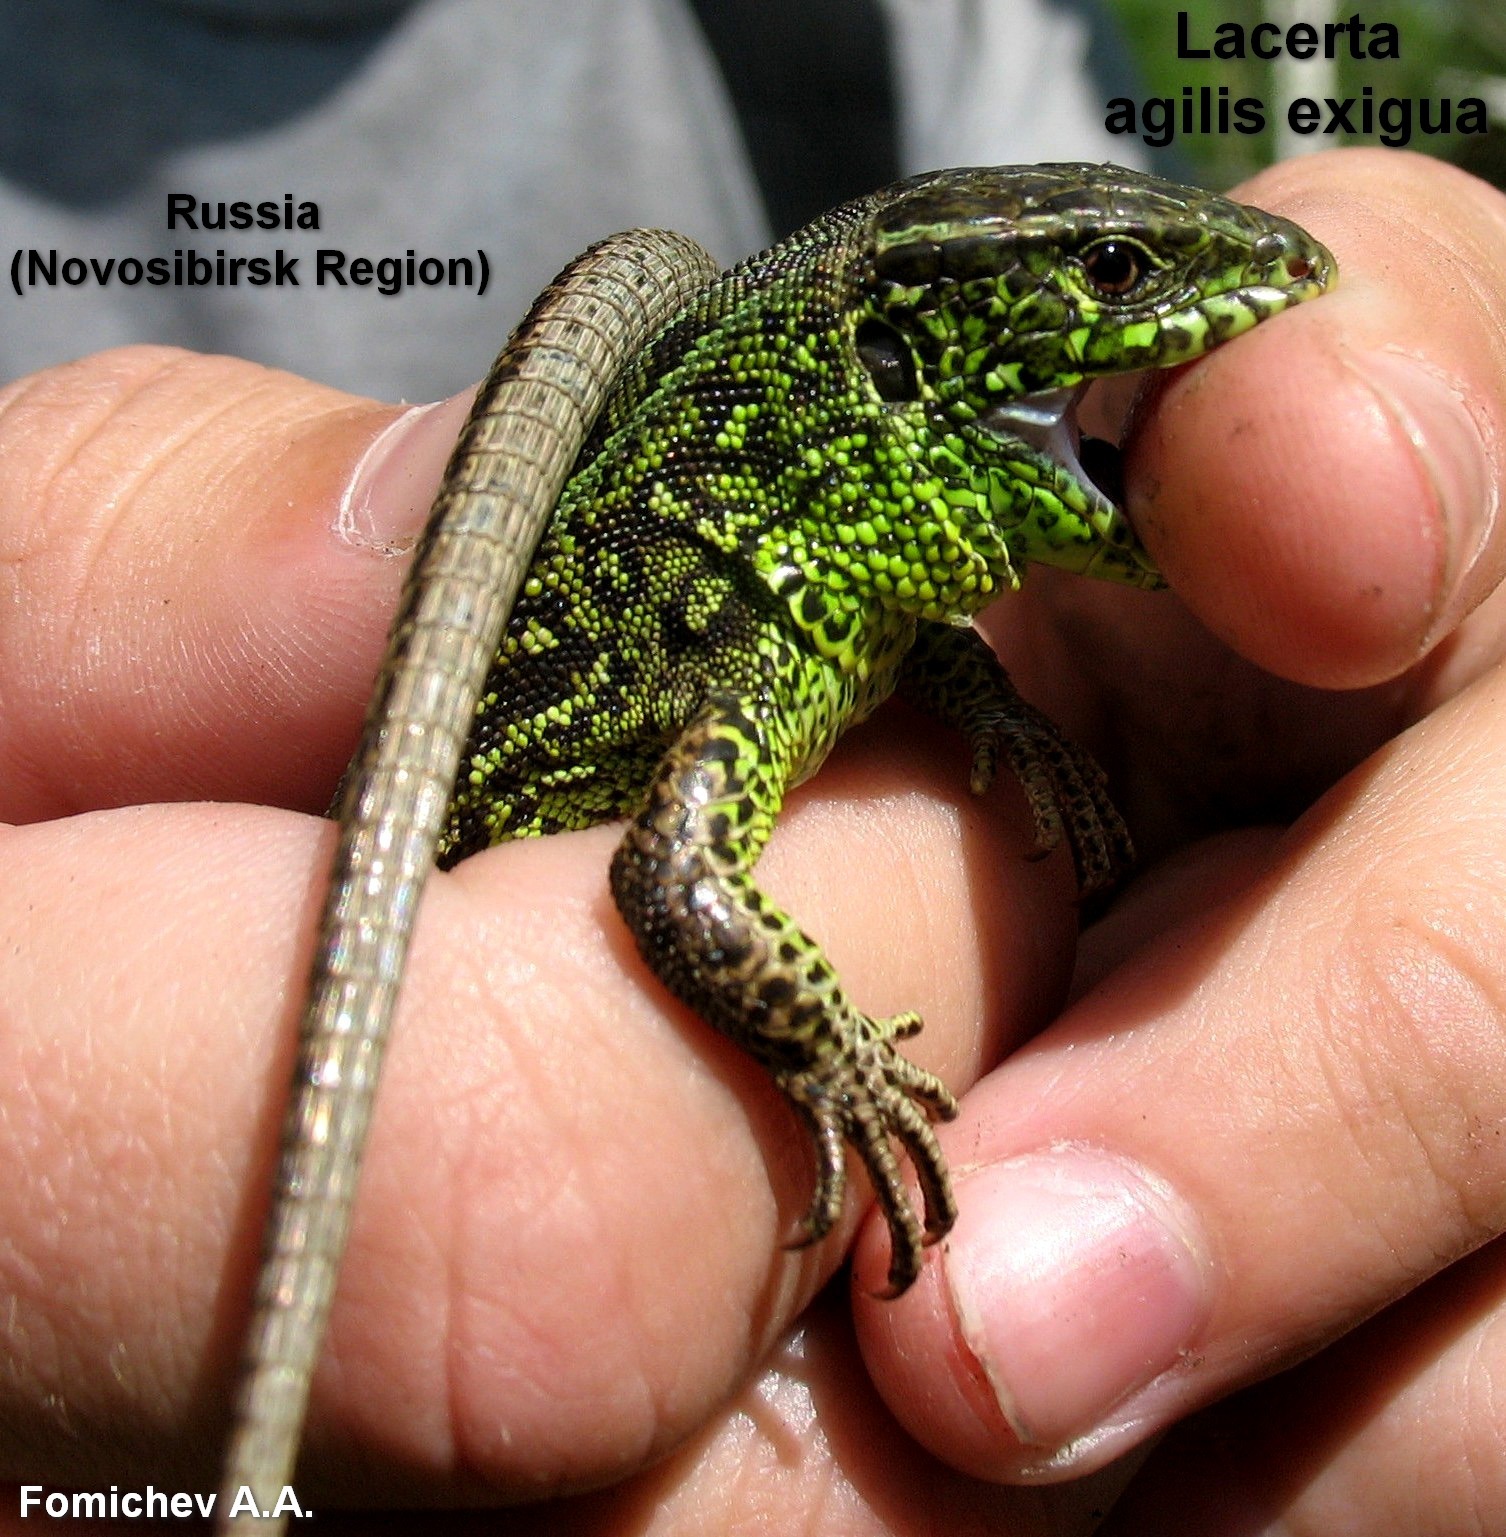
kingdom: Animalia
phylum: Chordata
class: Squamata
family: Lacertidae
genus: Lacerta
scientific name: Lacerta agilis
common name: Sand lizard
